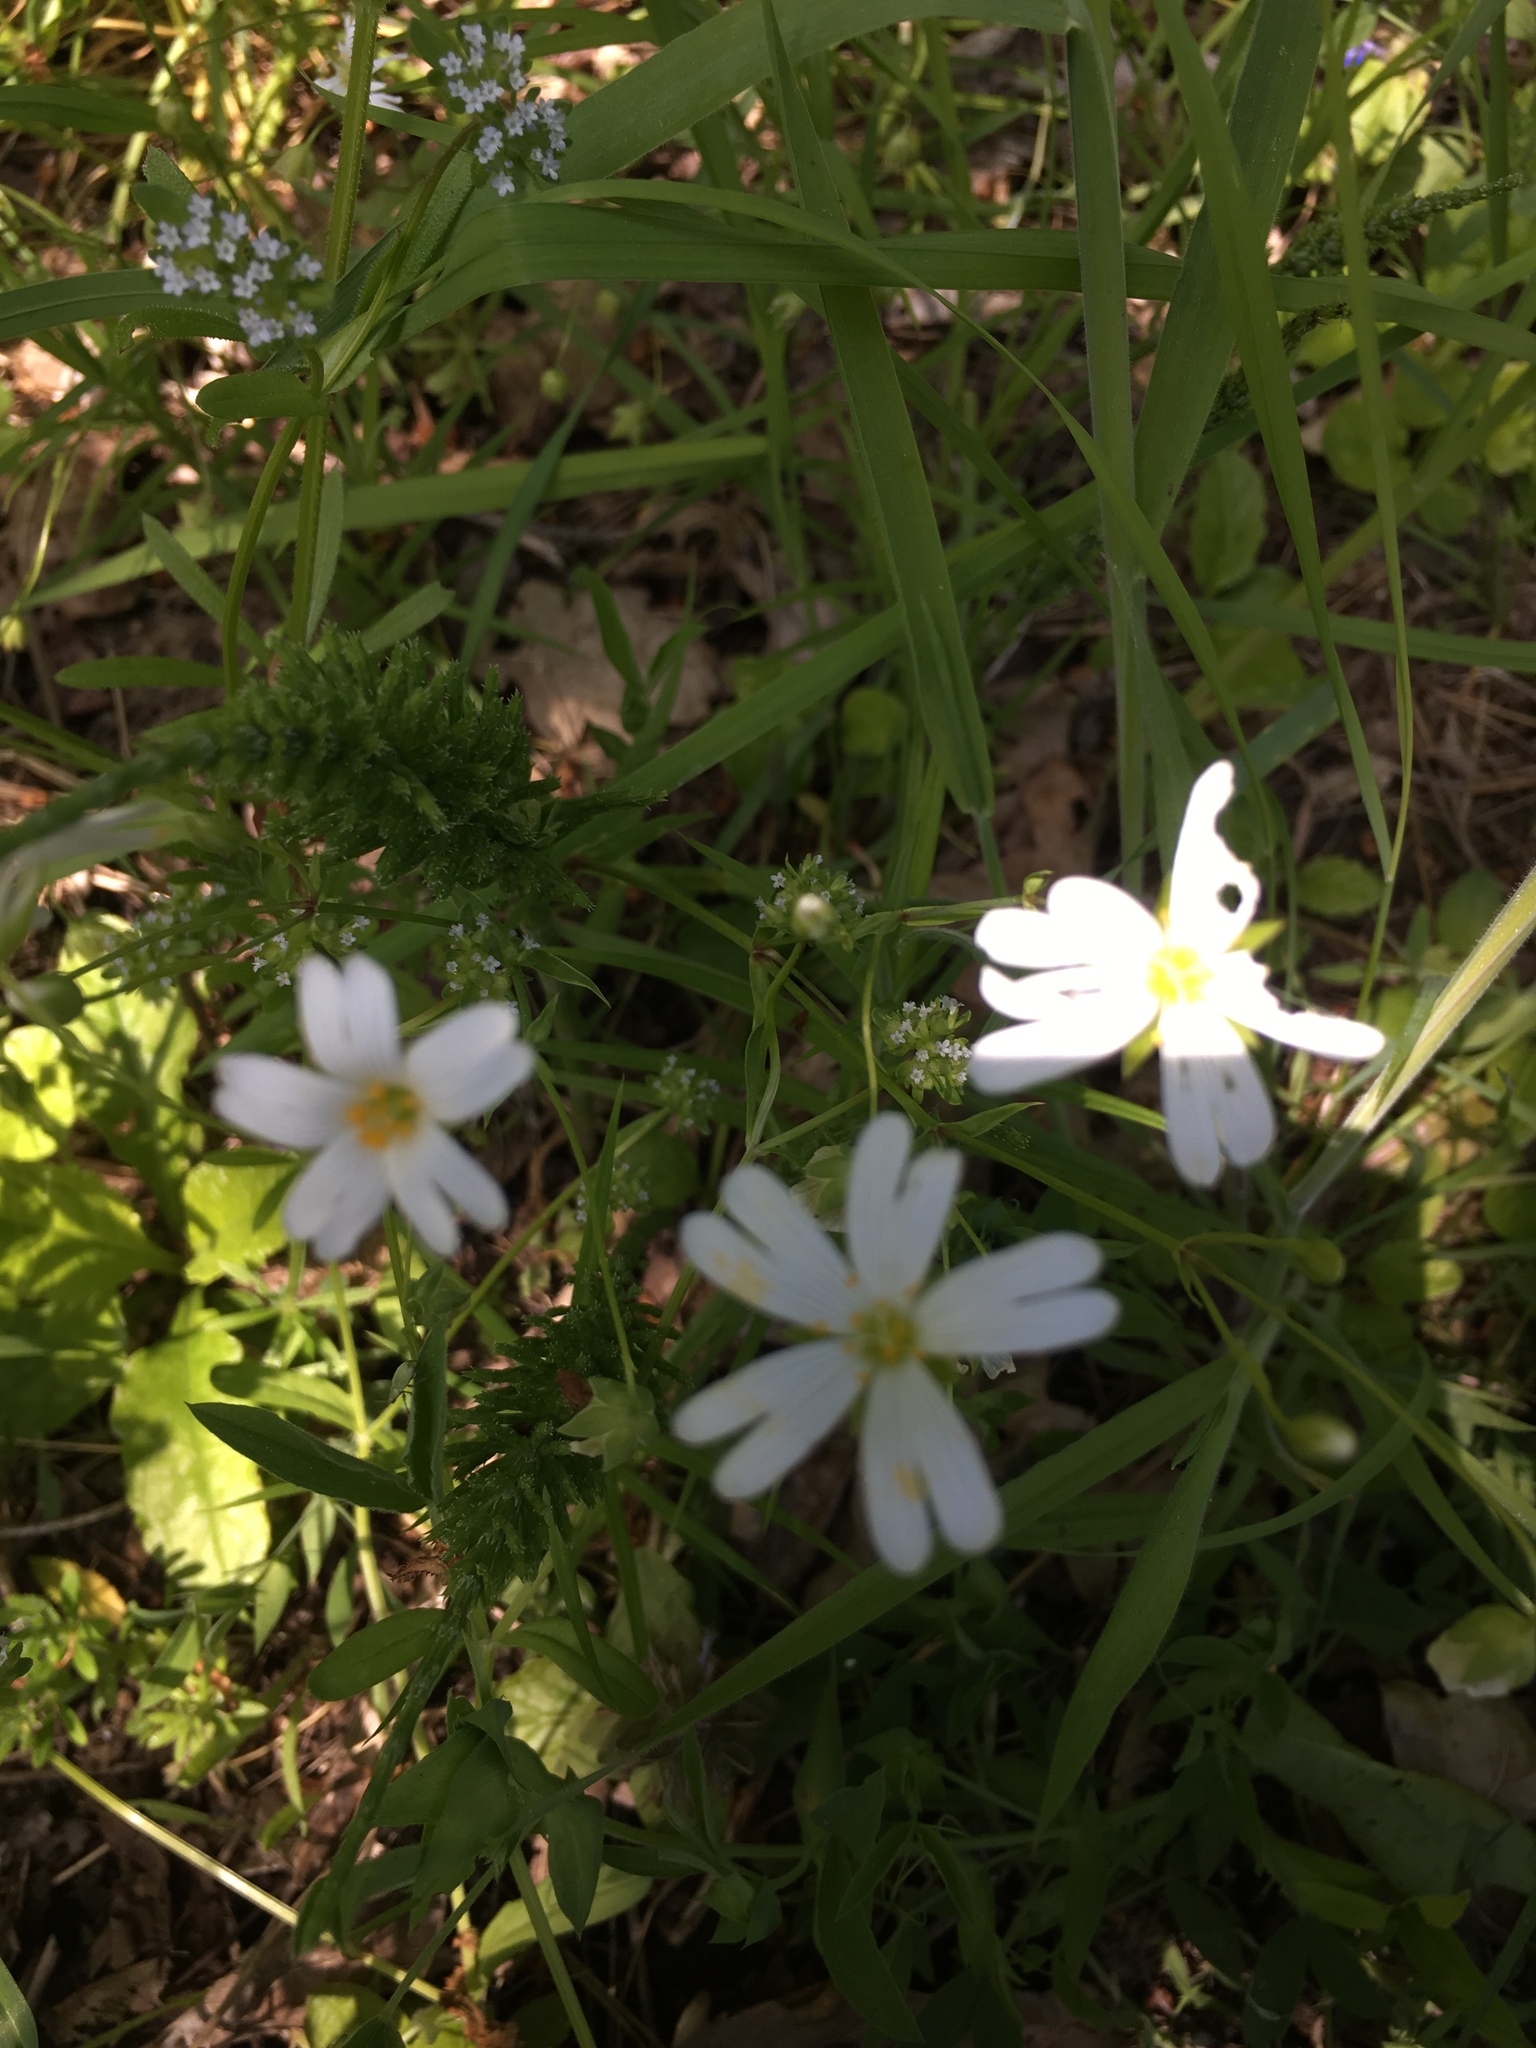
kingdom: Plantae
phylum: Tracheophyta
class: Magnoliopsida
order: Caryophyllales
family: Caryophyllaceae
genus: Rabelera
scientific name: Rabelera holostea
